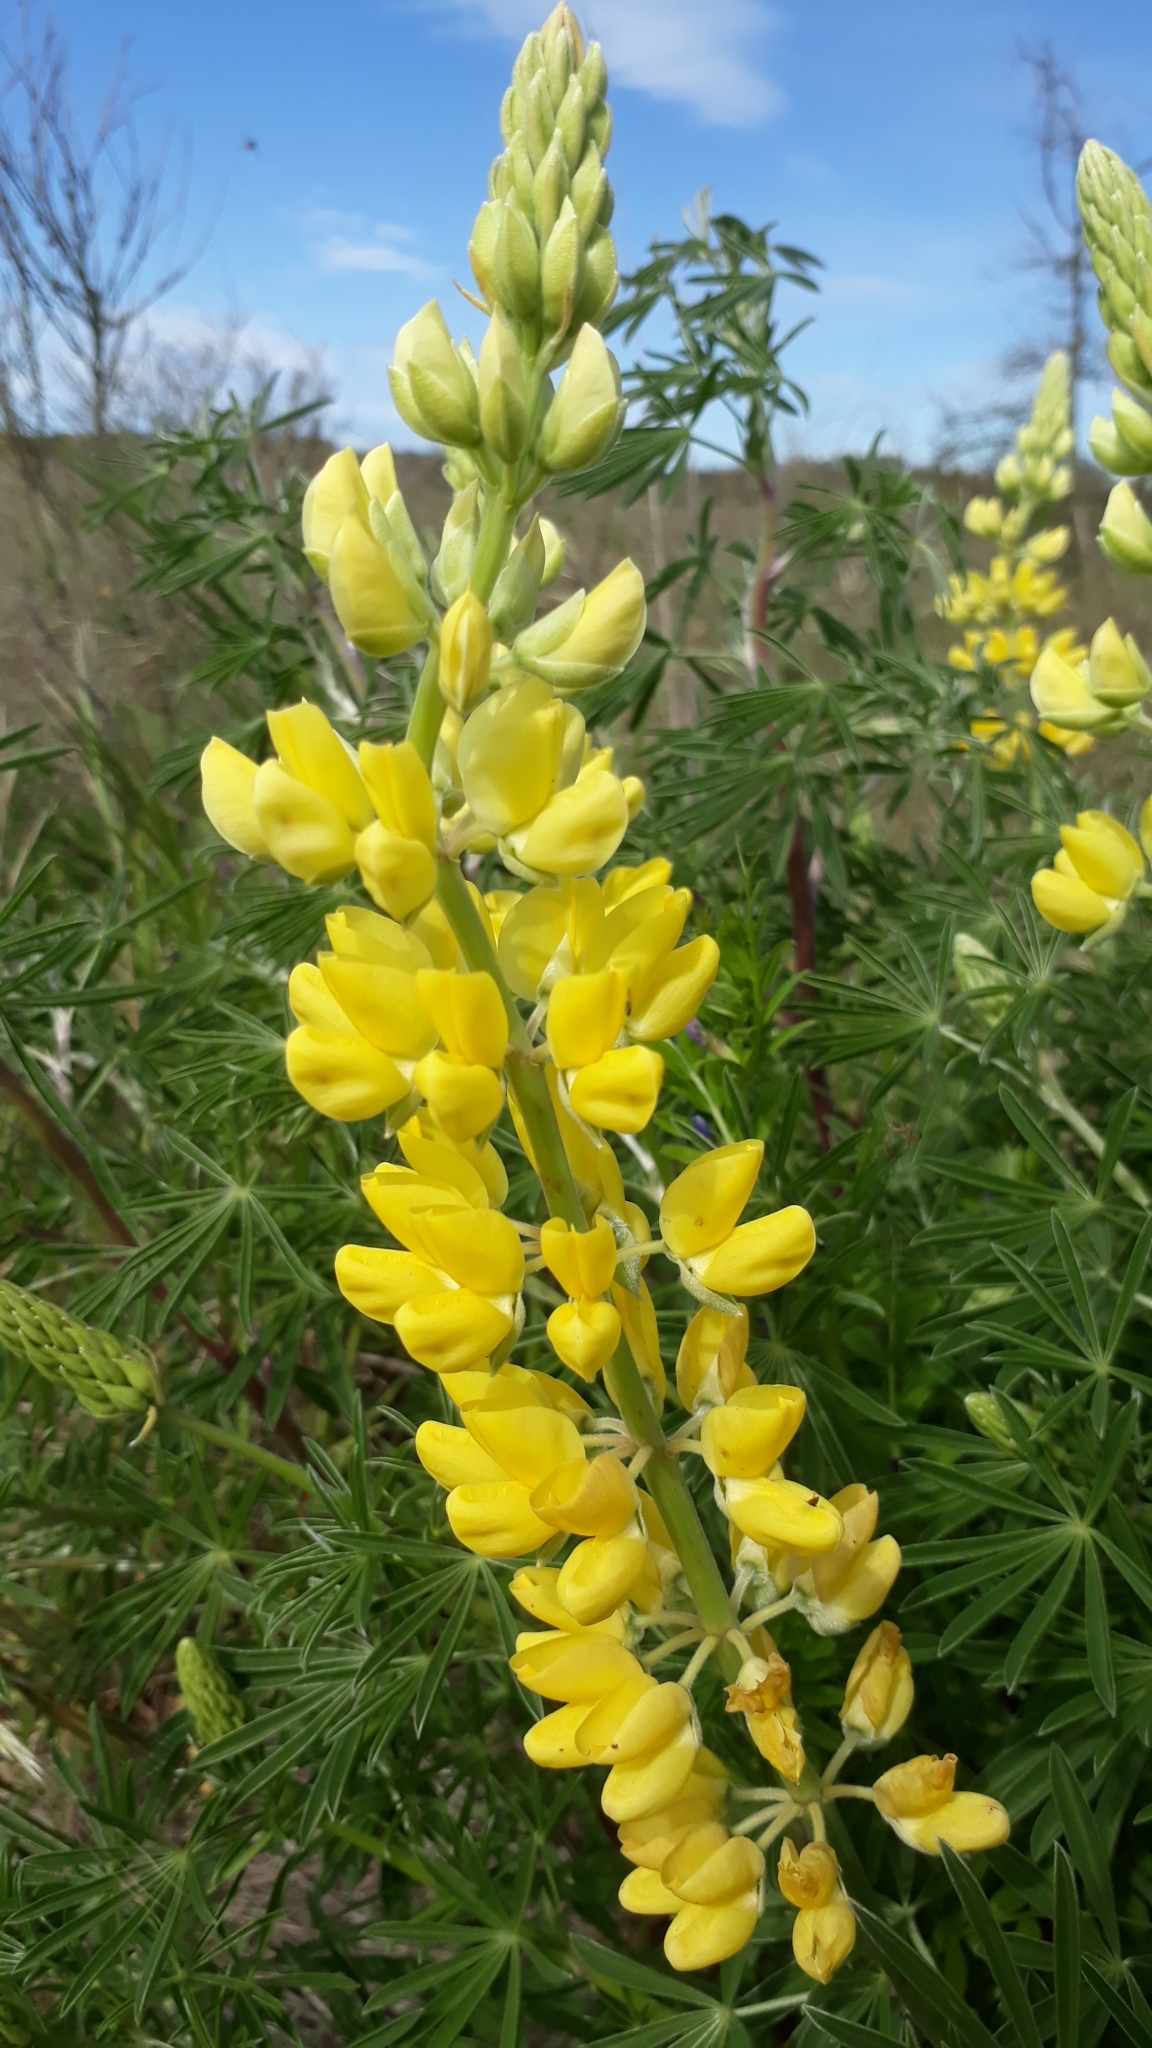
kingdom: Plantae
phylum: Tracheophyta
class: Magnoliopsida
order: Fabales
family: Fabaceae
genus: Lupinus
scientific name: Lupinus arboreus
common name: Yellow bush lupine
